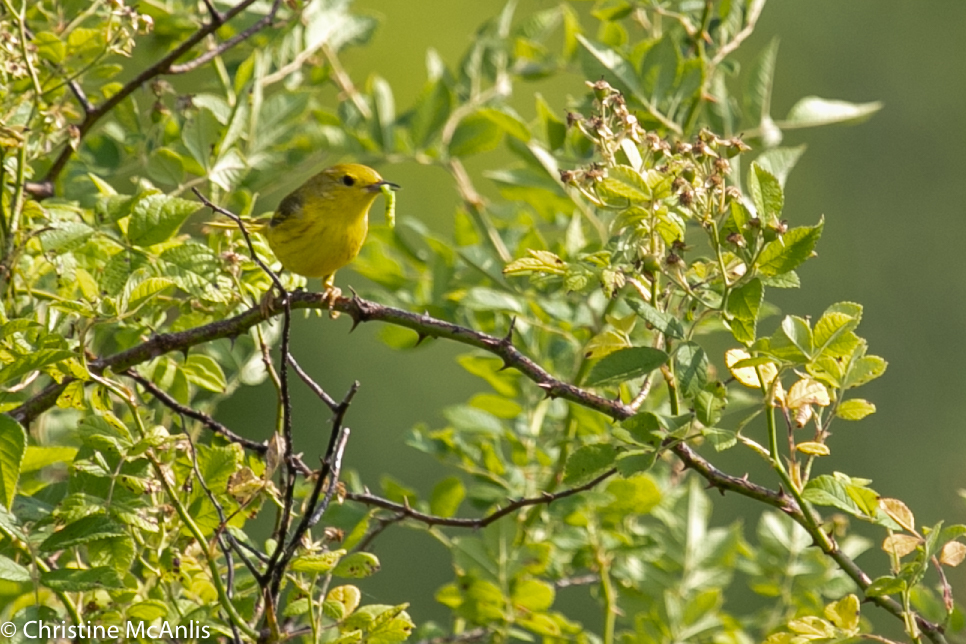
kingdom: Animalia
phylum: Chordata
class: Aves
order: Passeriformes
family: Parulidae
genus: Setophaga
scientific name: Setophaga petechia
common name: Yellow warbler
